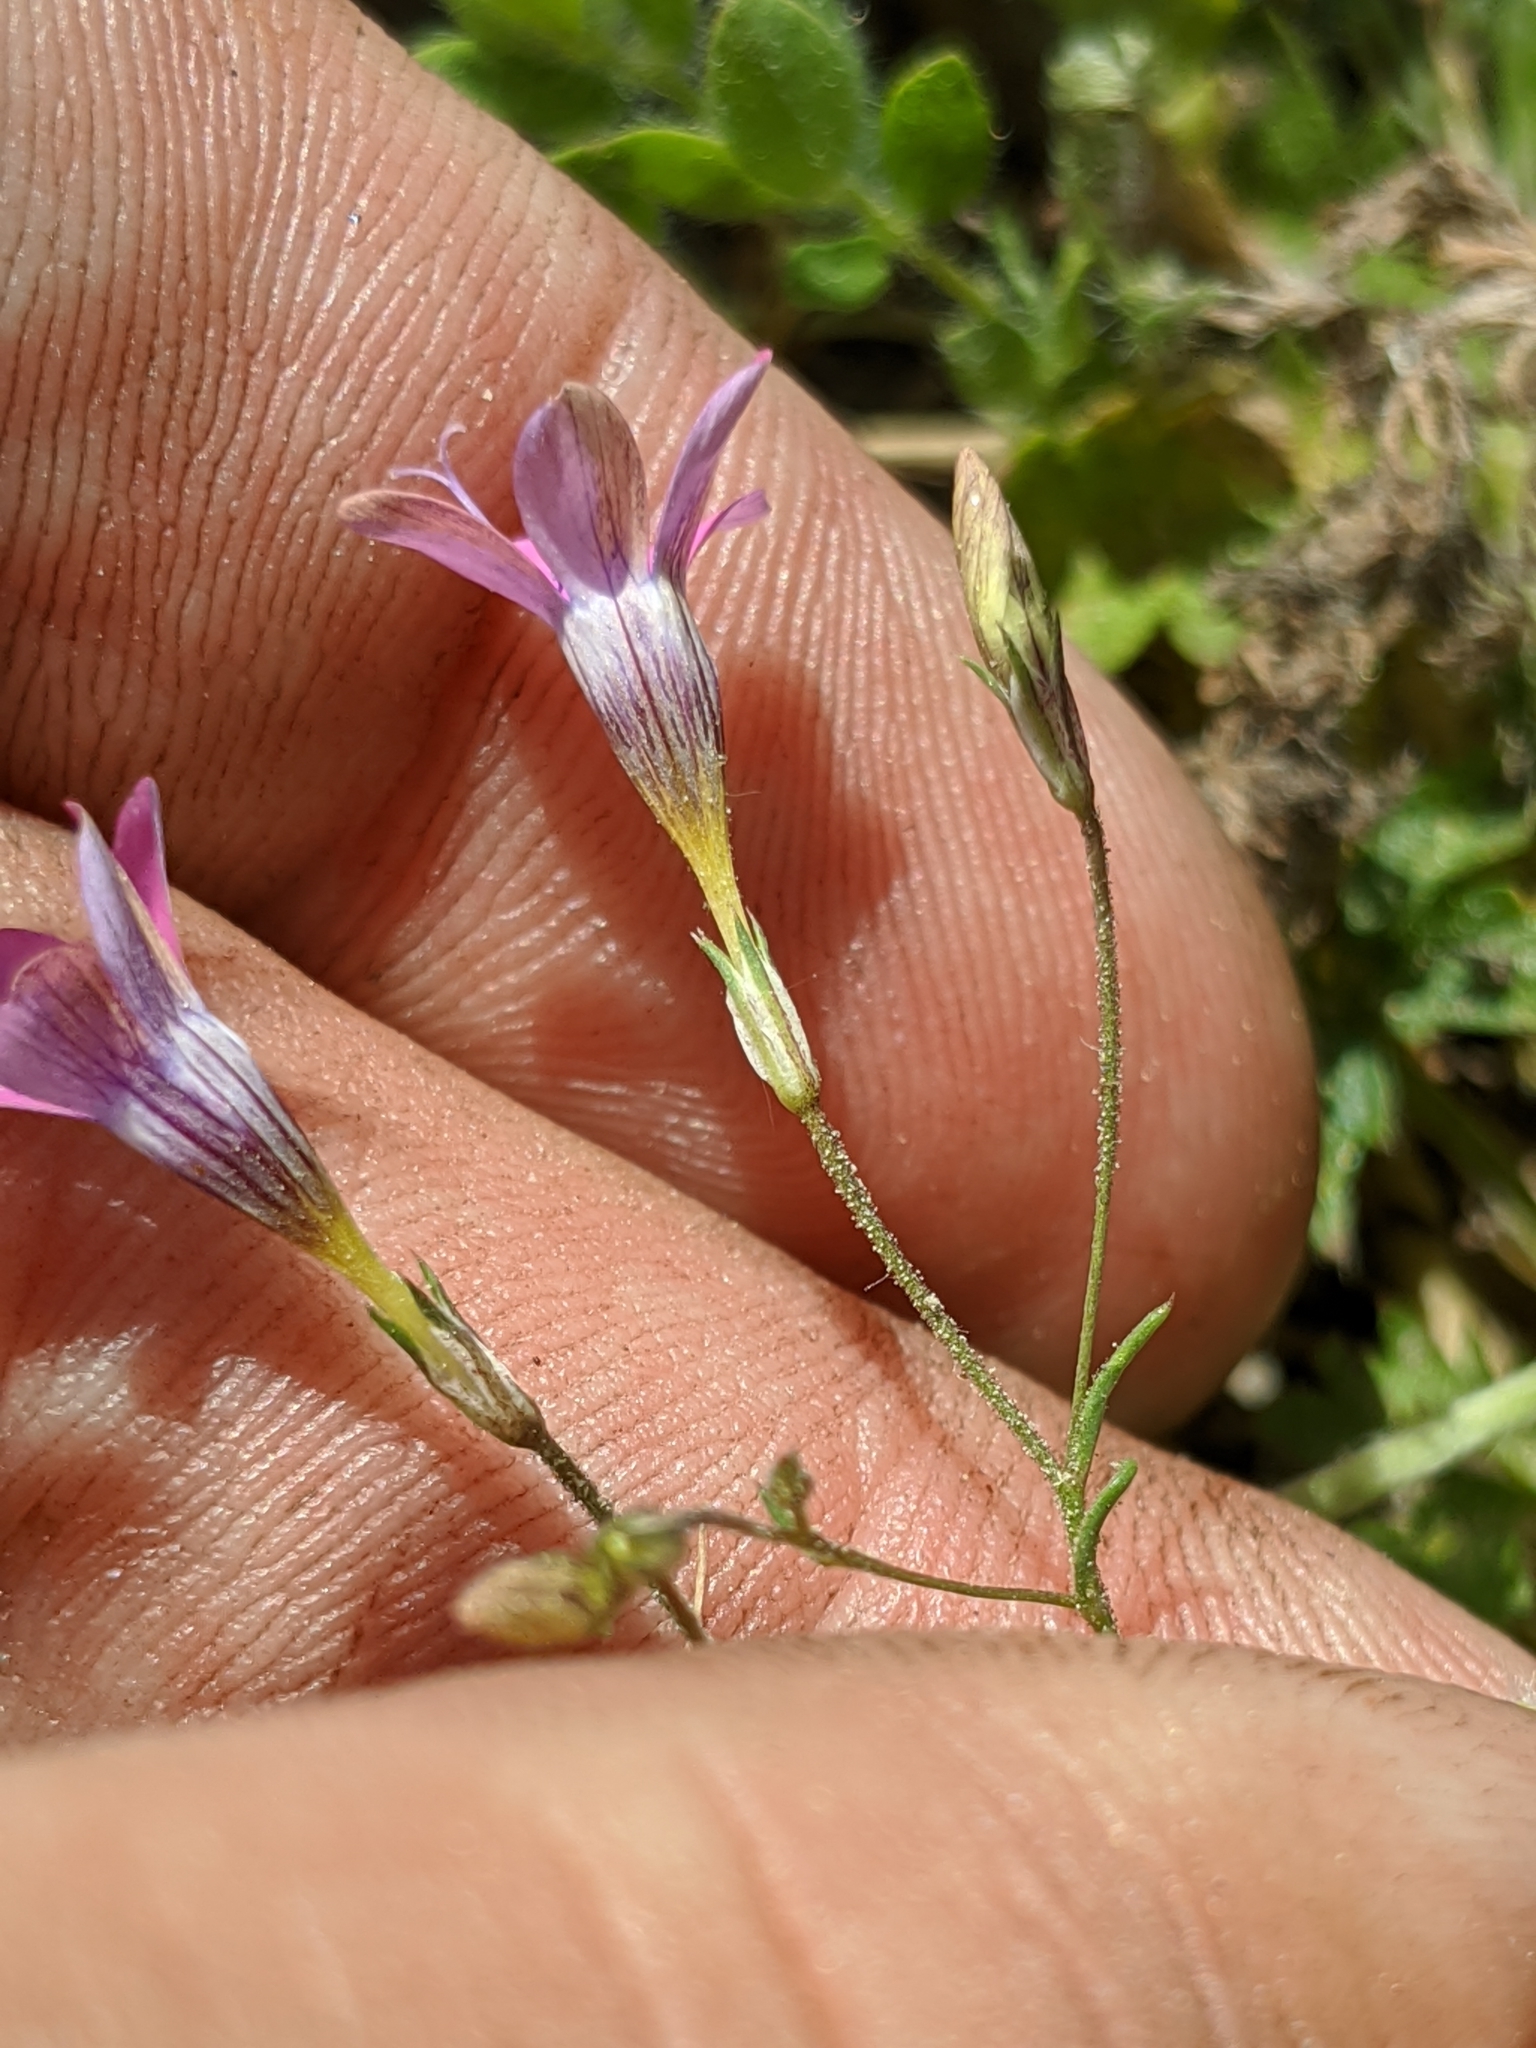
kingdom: Plantae
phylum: Tracheophyta
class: Magnoliopsida
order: Ericales
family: Polemoniaceae
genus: Navarretia
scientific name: Navarretia leptalea
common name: Bridges' pincushionplant
